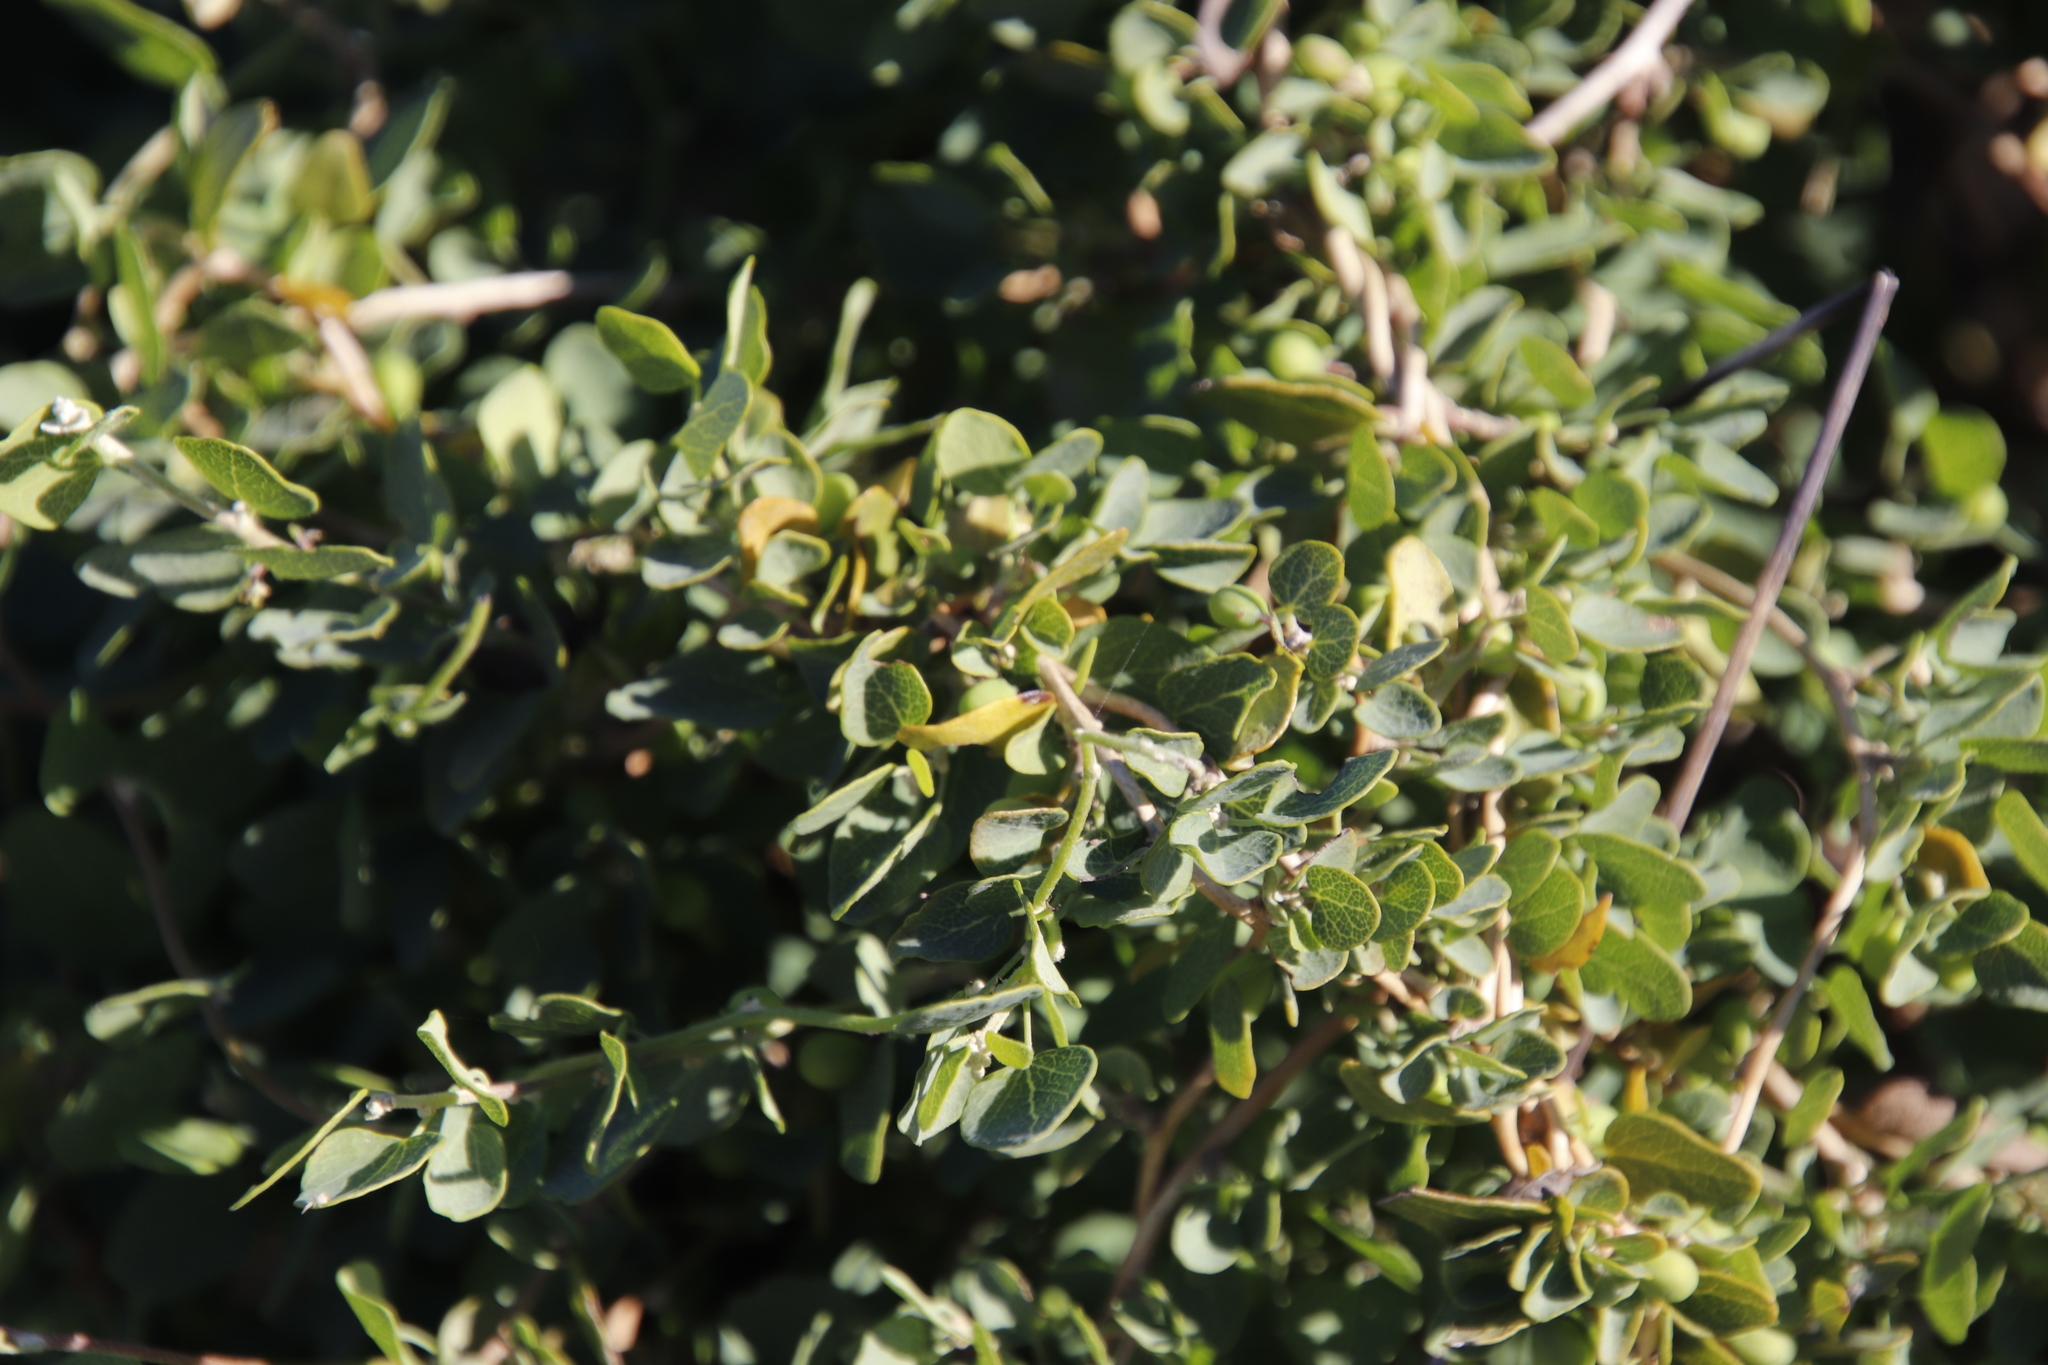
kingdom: Plantae
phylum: Tracheophyta
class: Magnoliopsida
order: Ranunculales
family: Menispermaceae
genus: Cissampelos
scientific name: Cissampelos capensis
